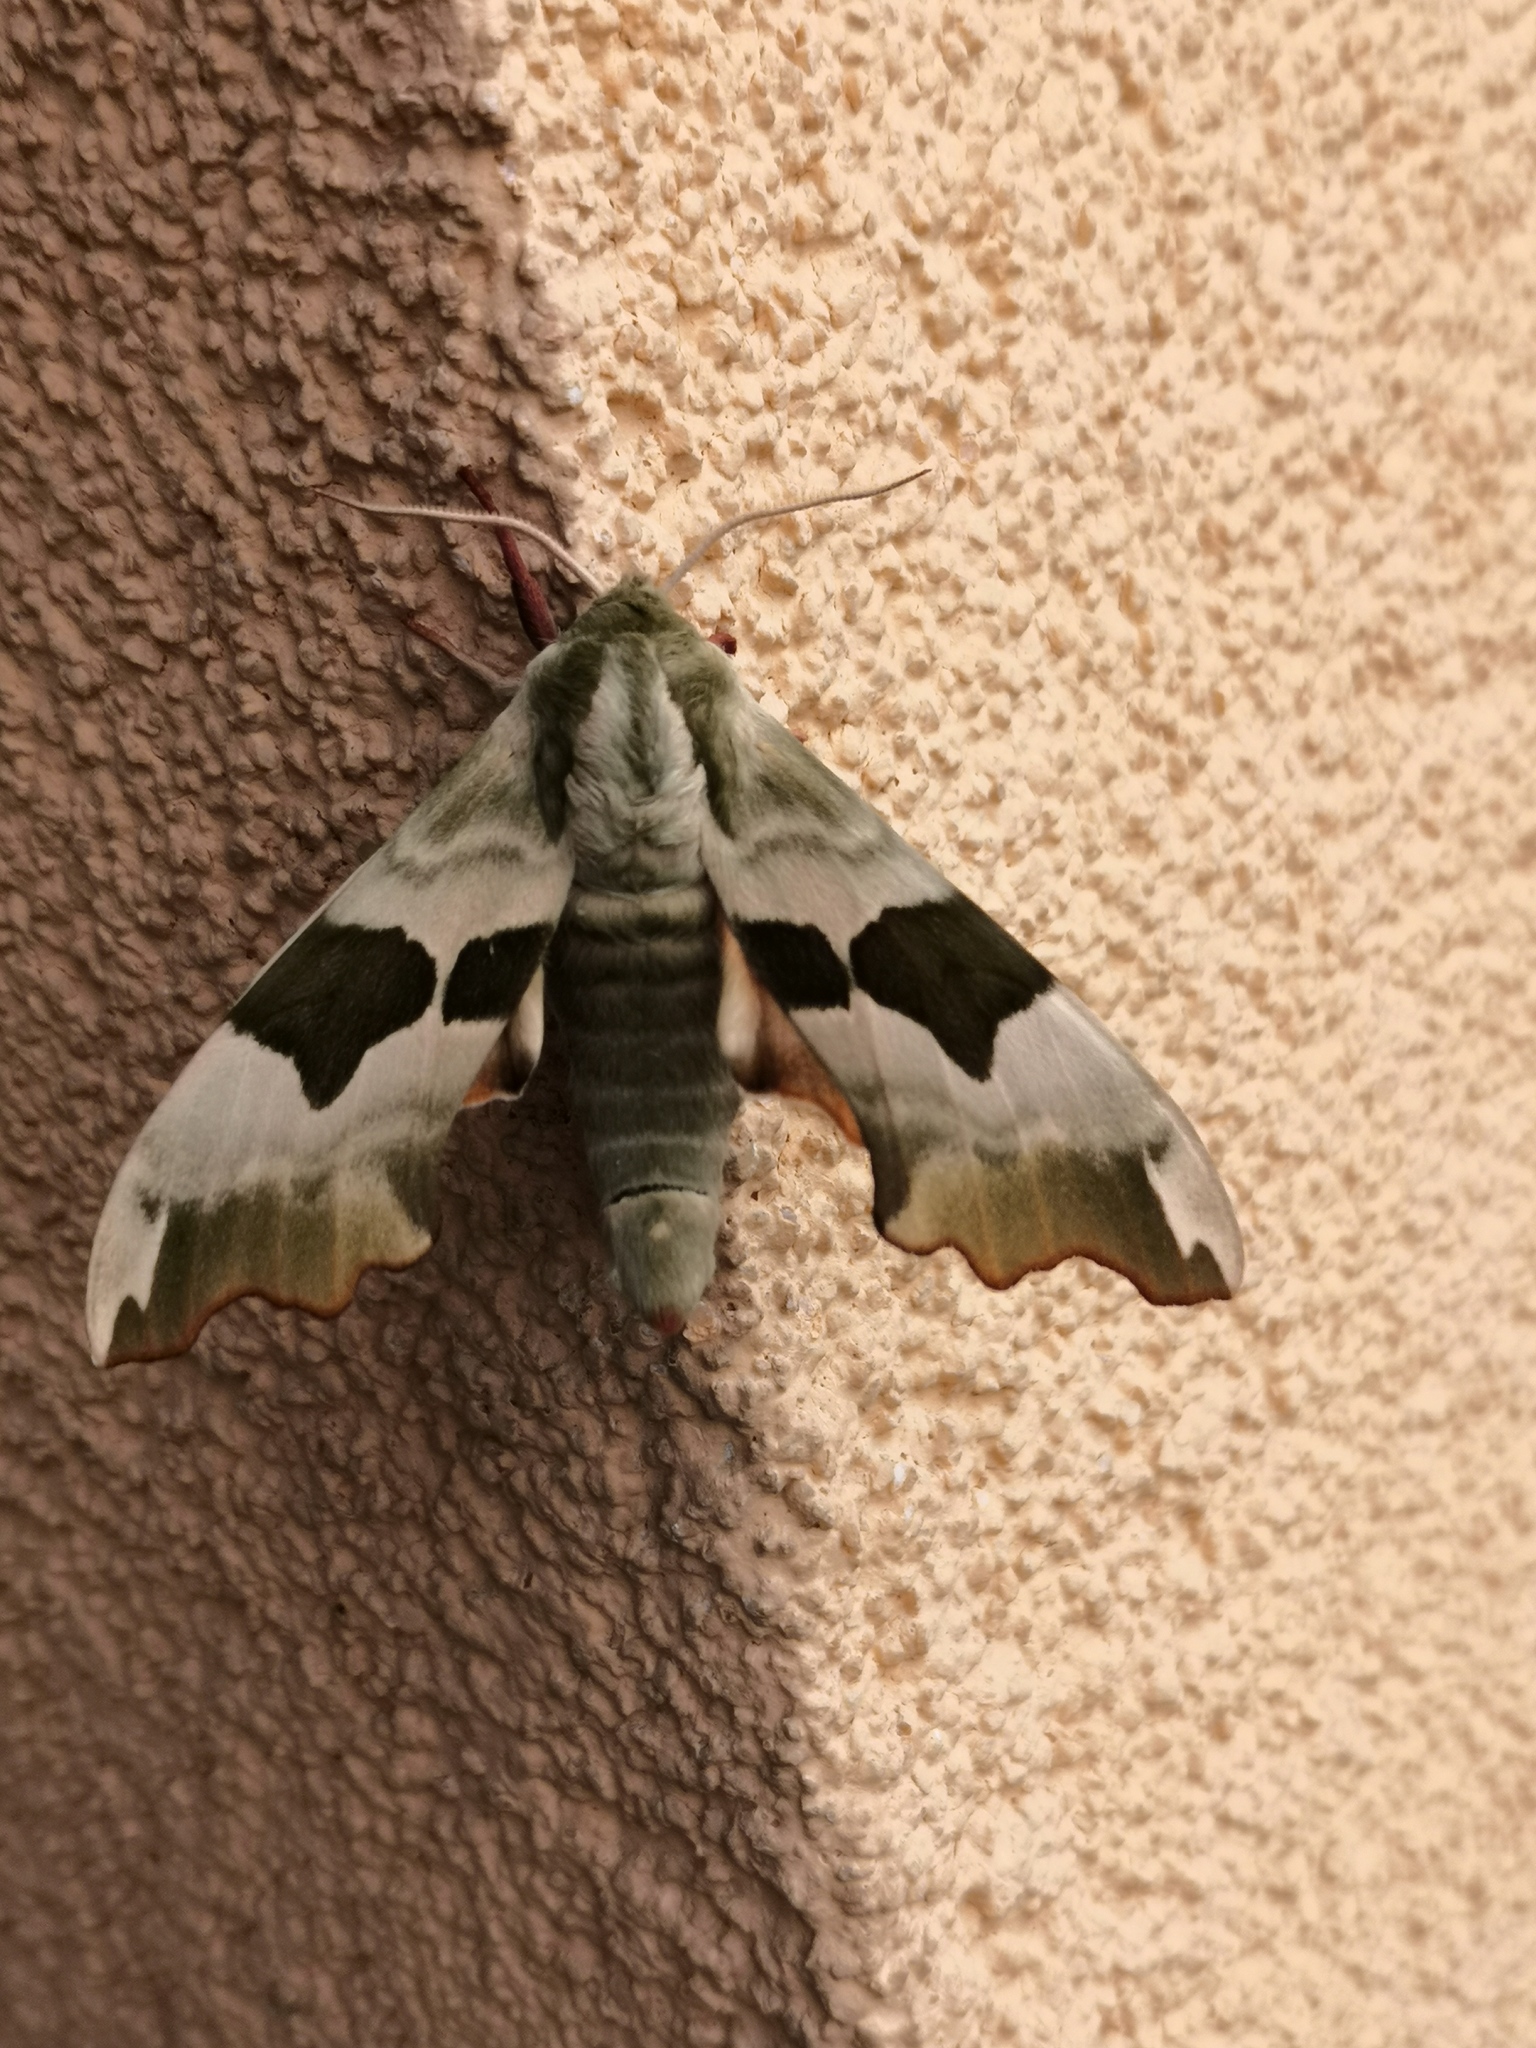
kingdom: Animalia
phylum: Arthropoda
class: Insecta
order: Lepidoptera
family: Sphingidae
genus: Mimas
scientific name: Mimas tiliae
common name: Lime hawk-moth
